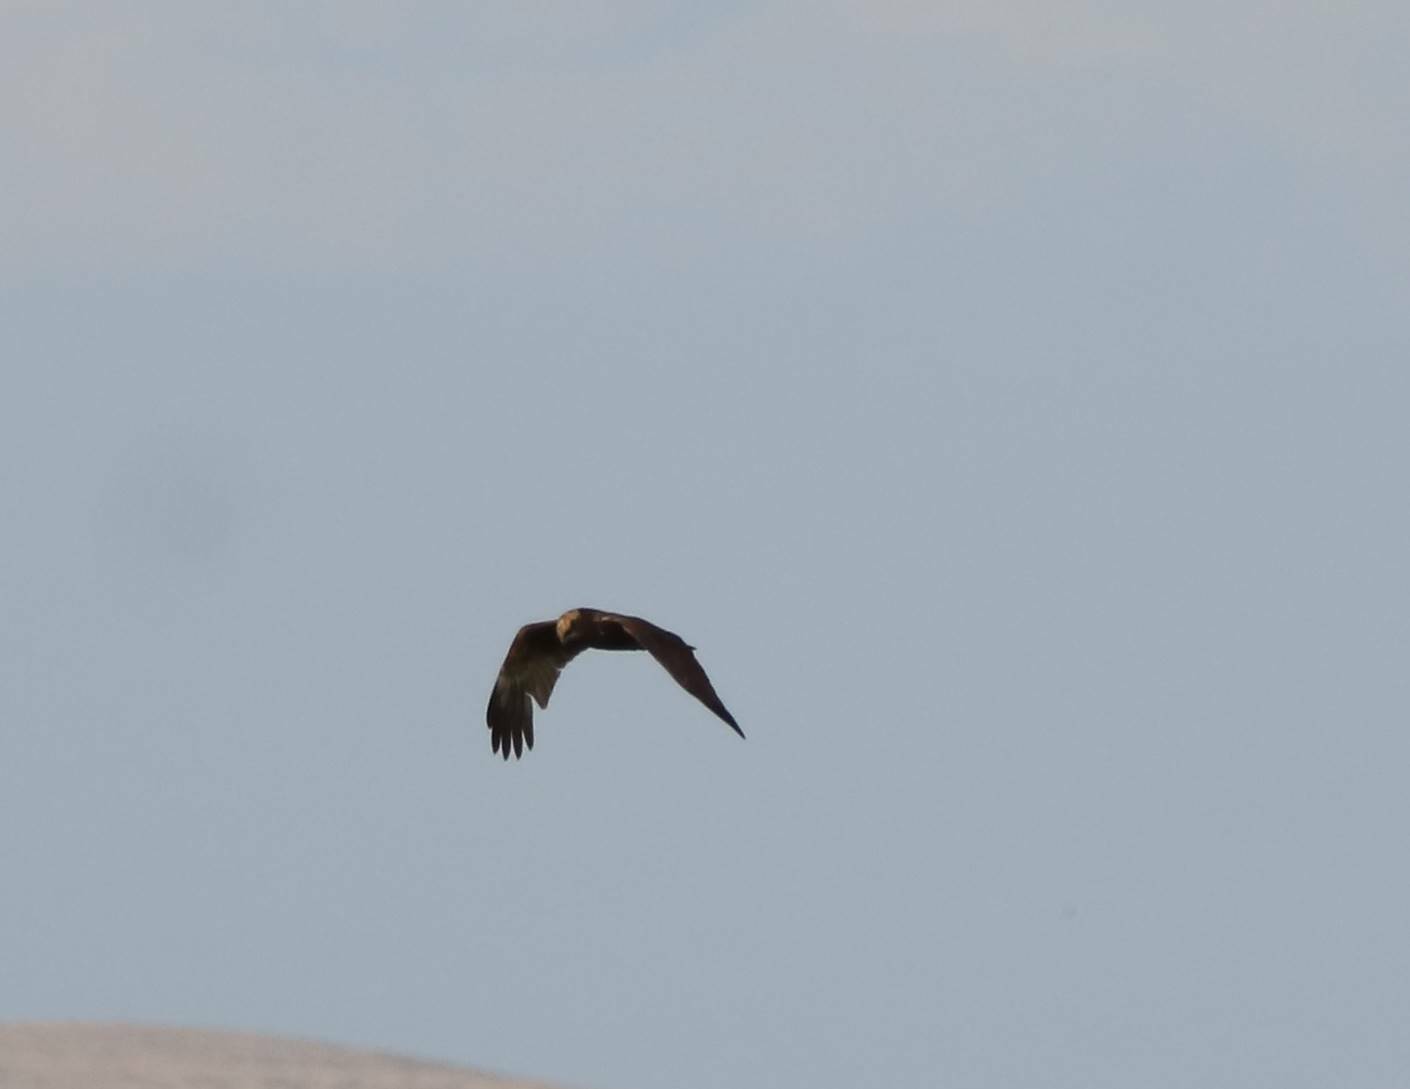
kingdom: Animalia
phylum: Chordata
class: Aves
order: Accipitriformes
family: Accipitridae
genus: Circus
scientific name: Circus aeruginosus
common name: Western marsh harrier
